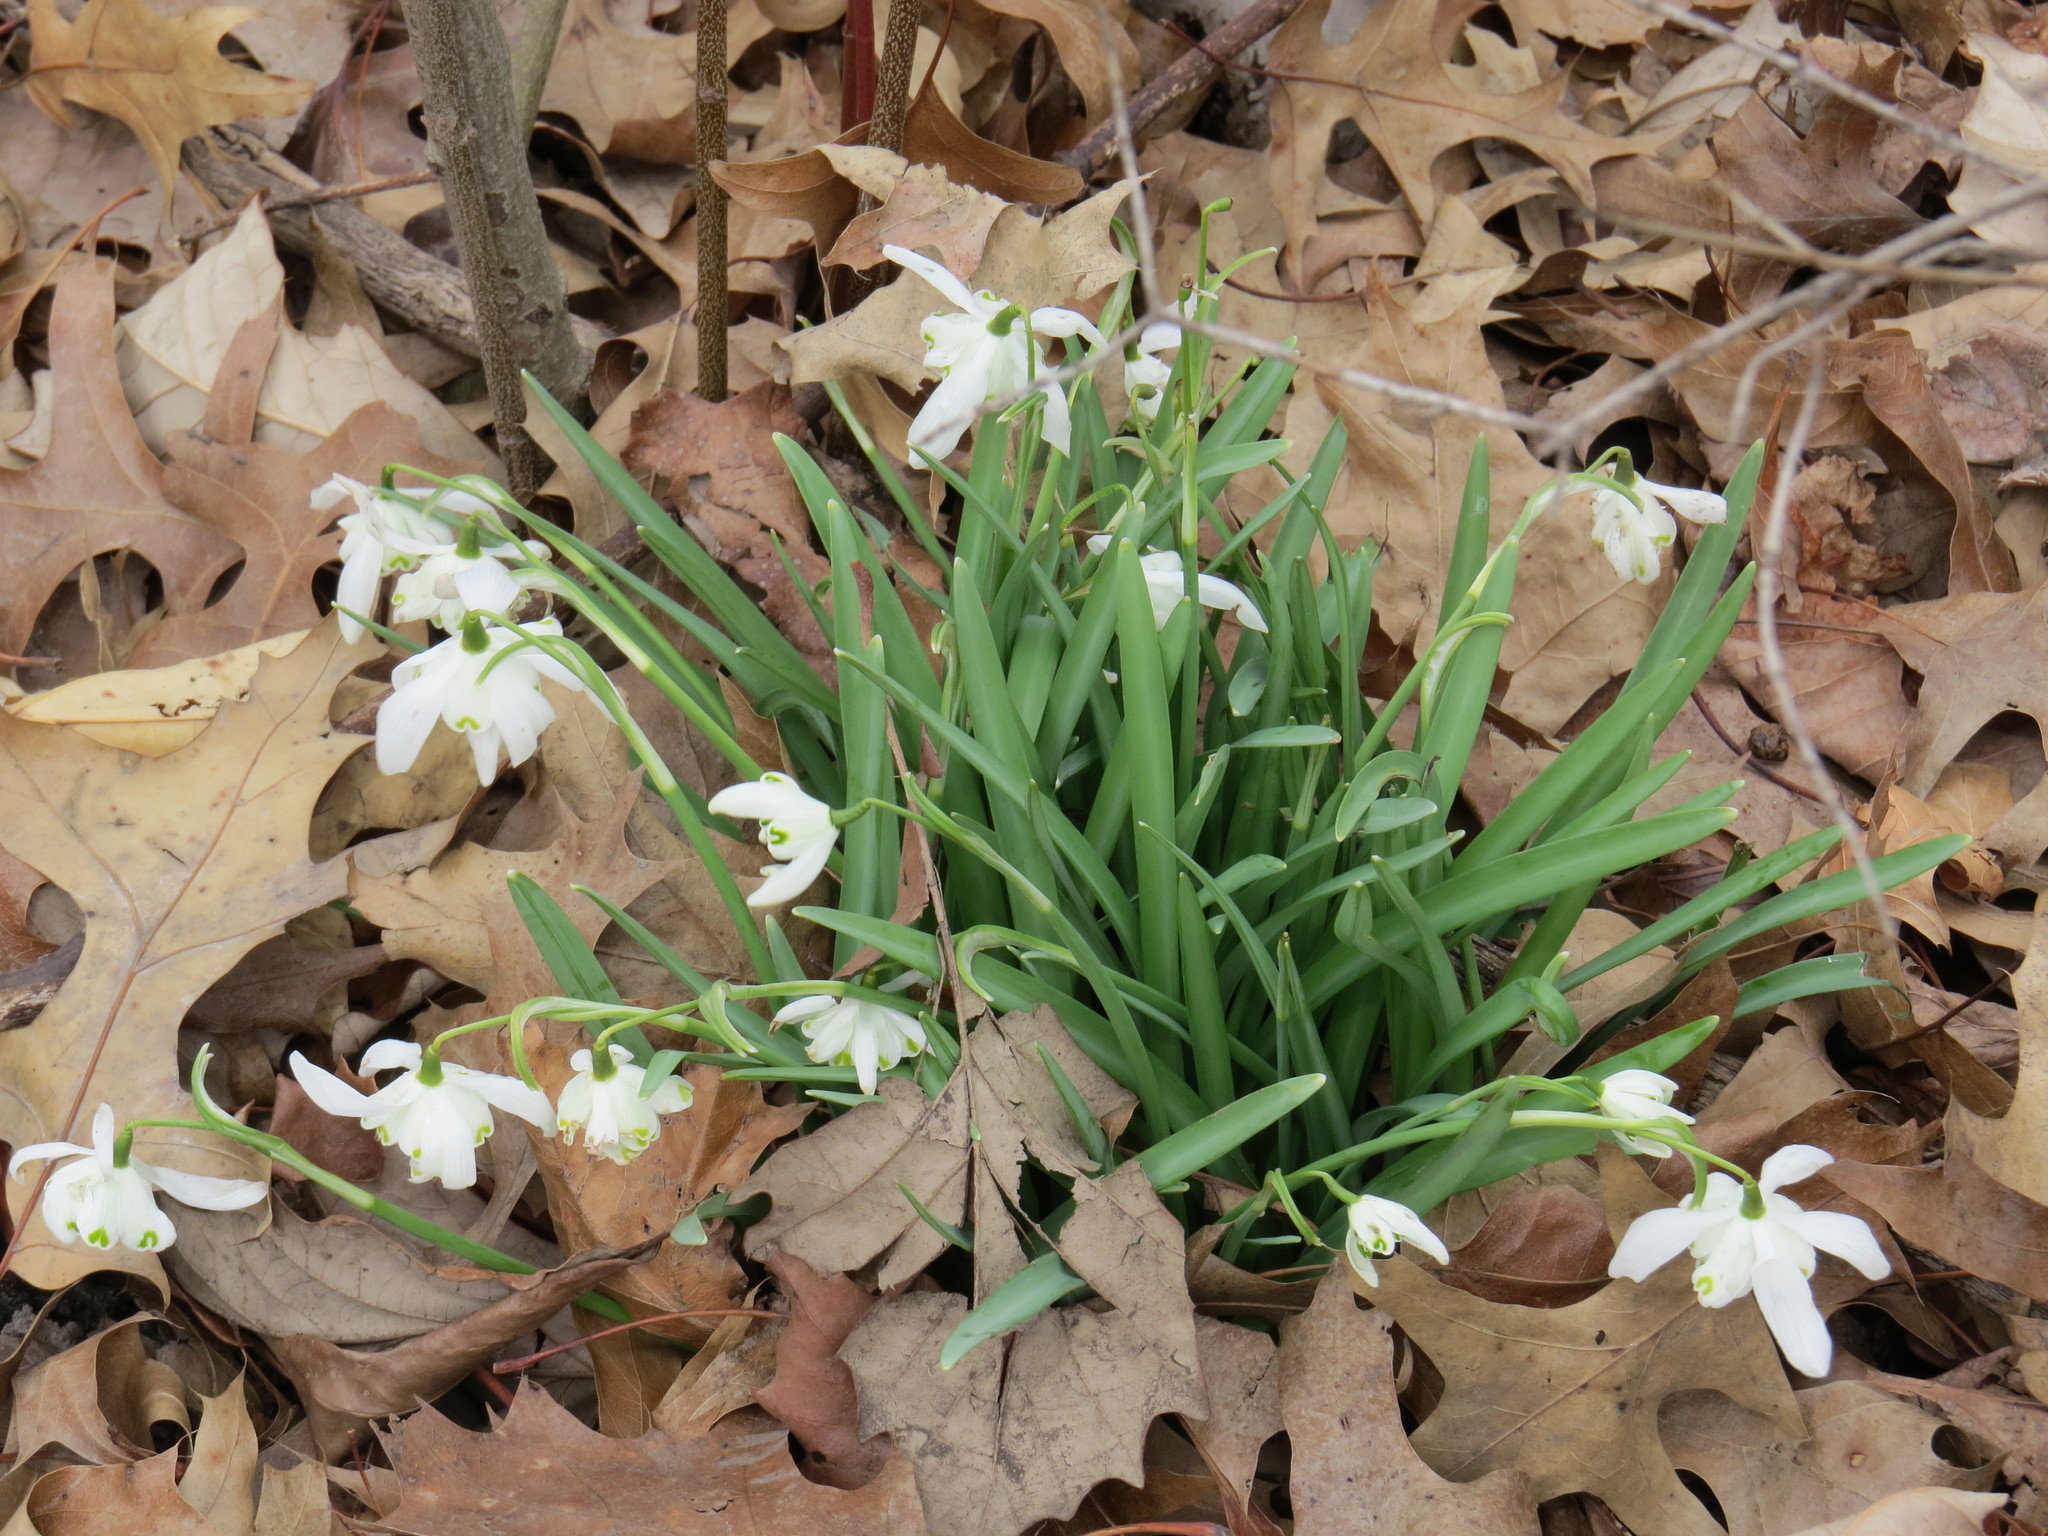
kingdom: Plantae
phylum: Tracheophyta
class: Liliopsida
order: Asparagales
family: Amaryllidaceae
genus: Galanthus
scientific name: Galanthus nivalis
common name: Snowdrop
